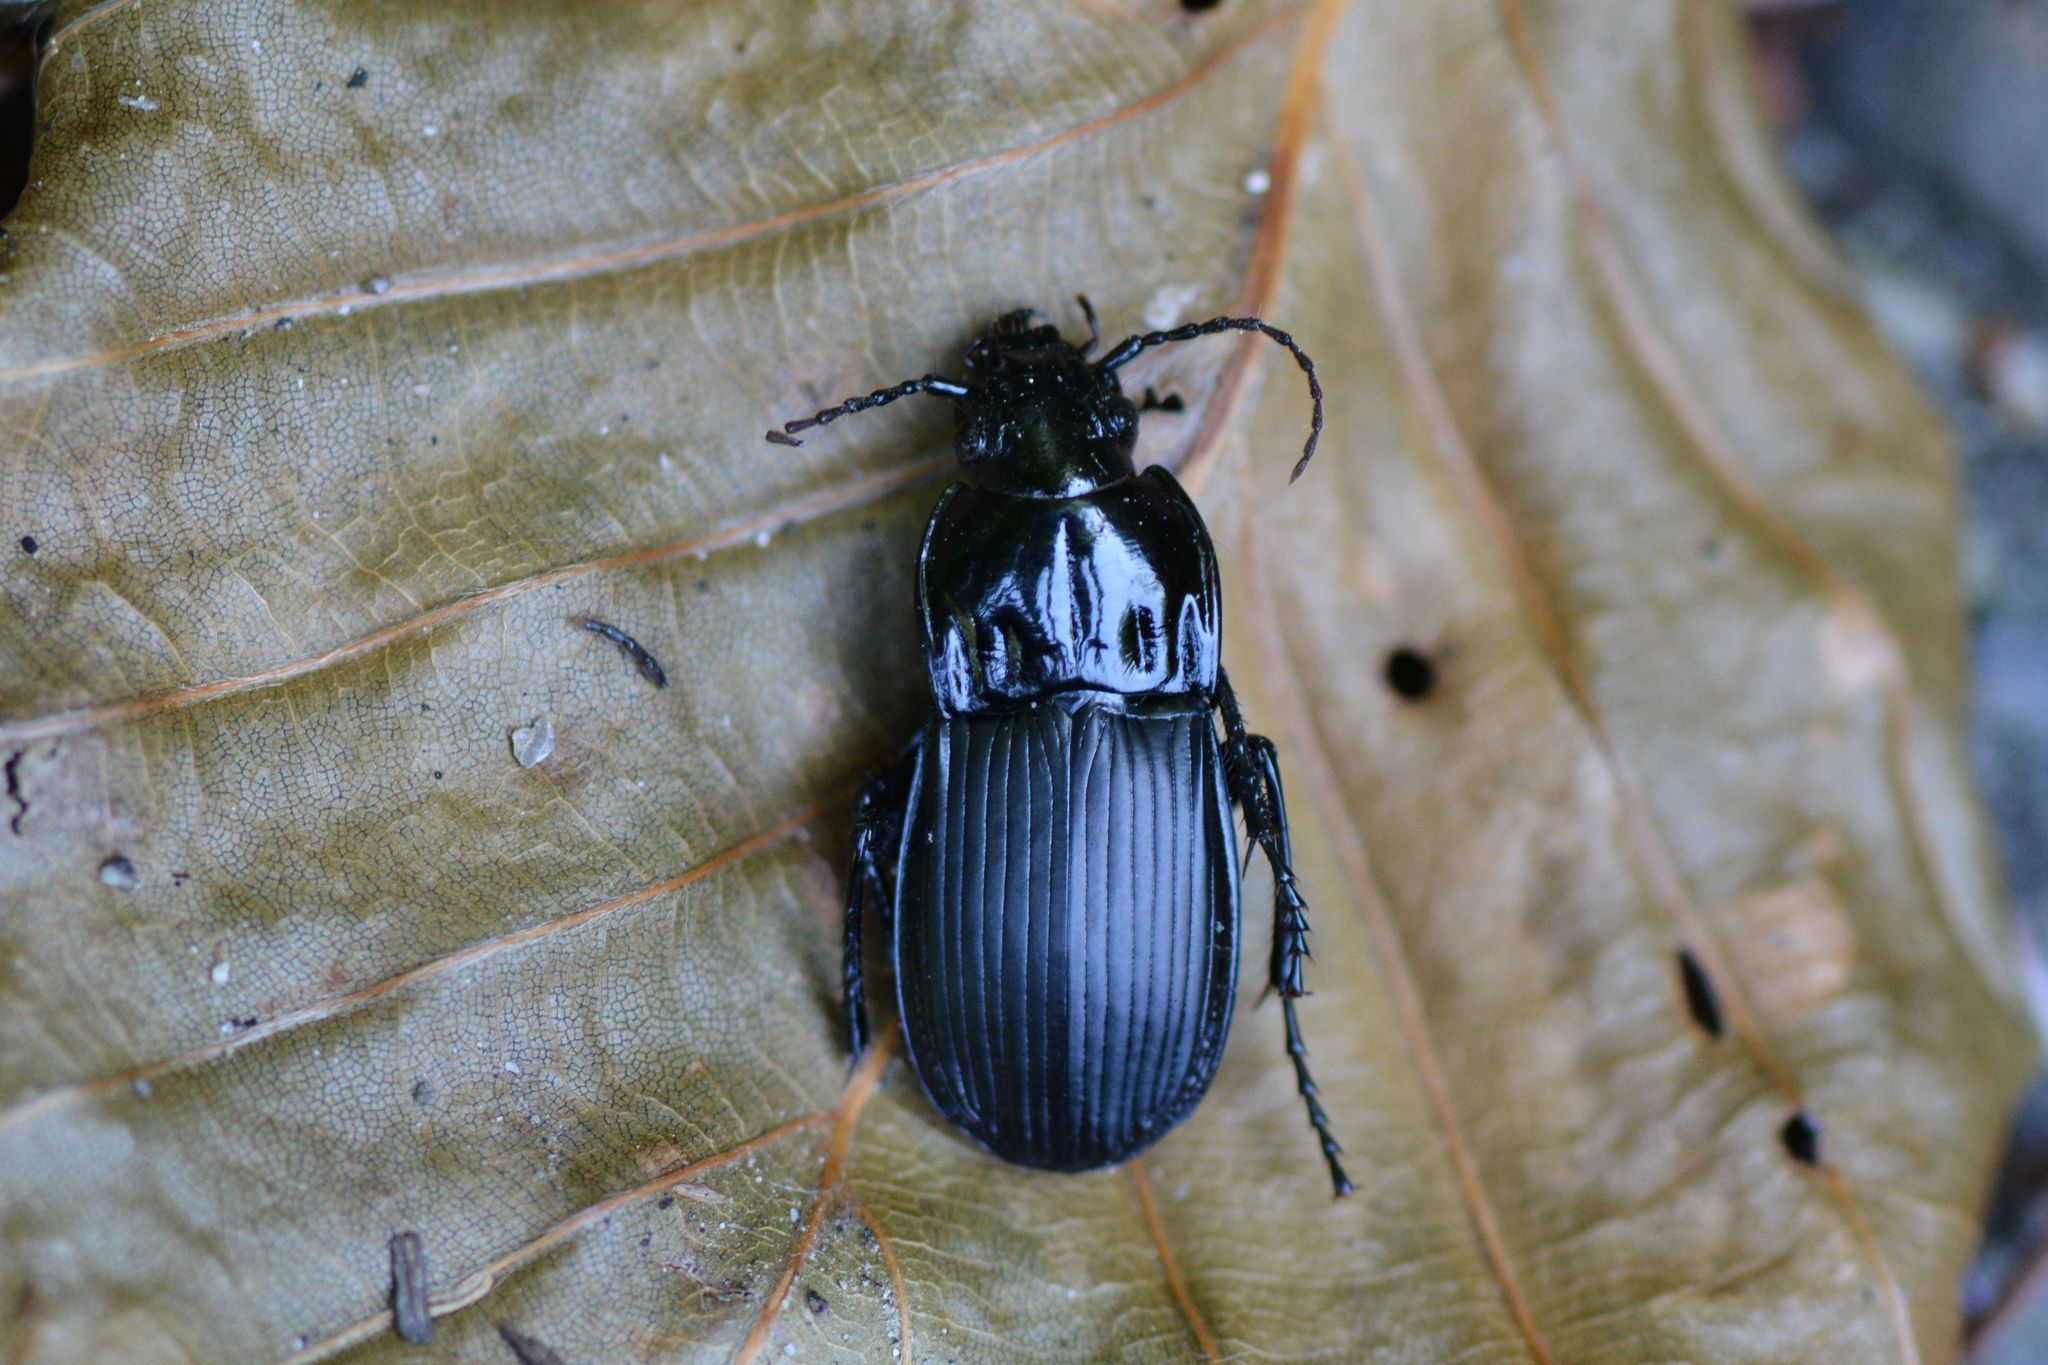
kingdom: Animalia
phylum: Arthropoda
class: Insecta
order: Coleoptera
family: Carabidae
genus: Abax
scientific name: Abax parallelepipedus
